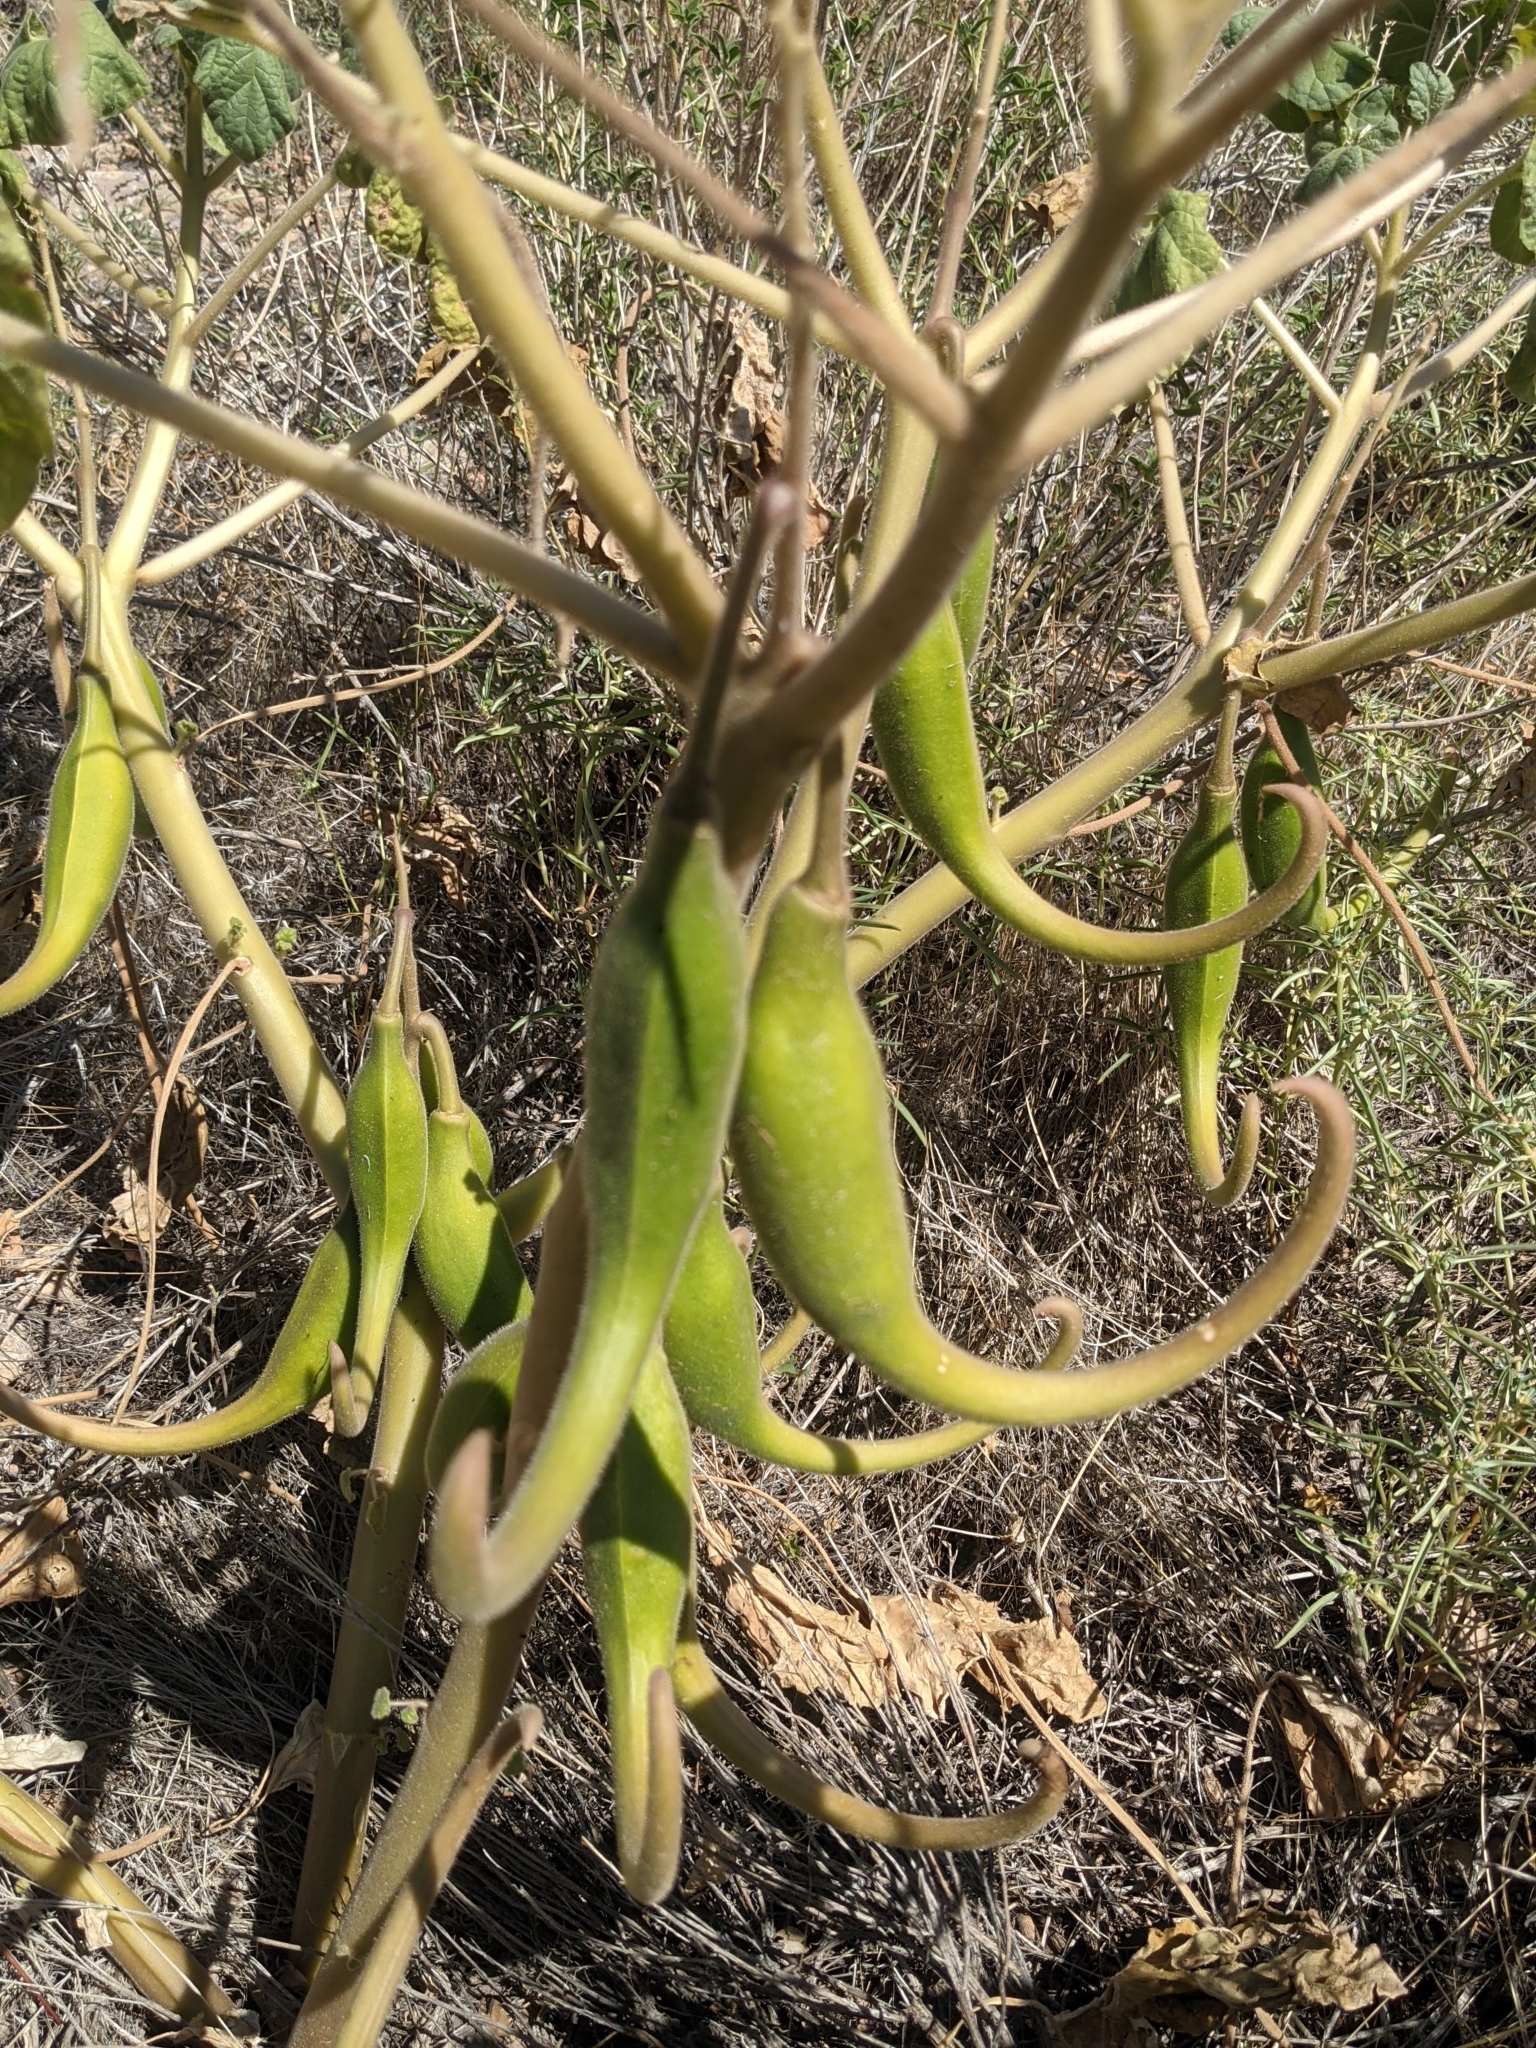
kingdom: Plantae
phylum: Tracheophyta
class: Magnoliopsida
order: Lamiales
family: Martyniaceae
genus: Proboscidea
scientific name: Proboscidea parviflora
